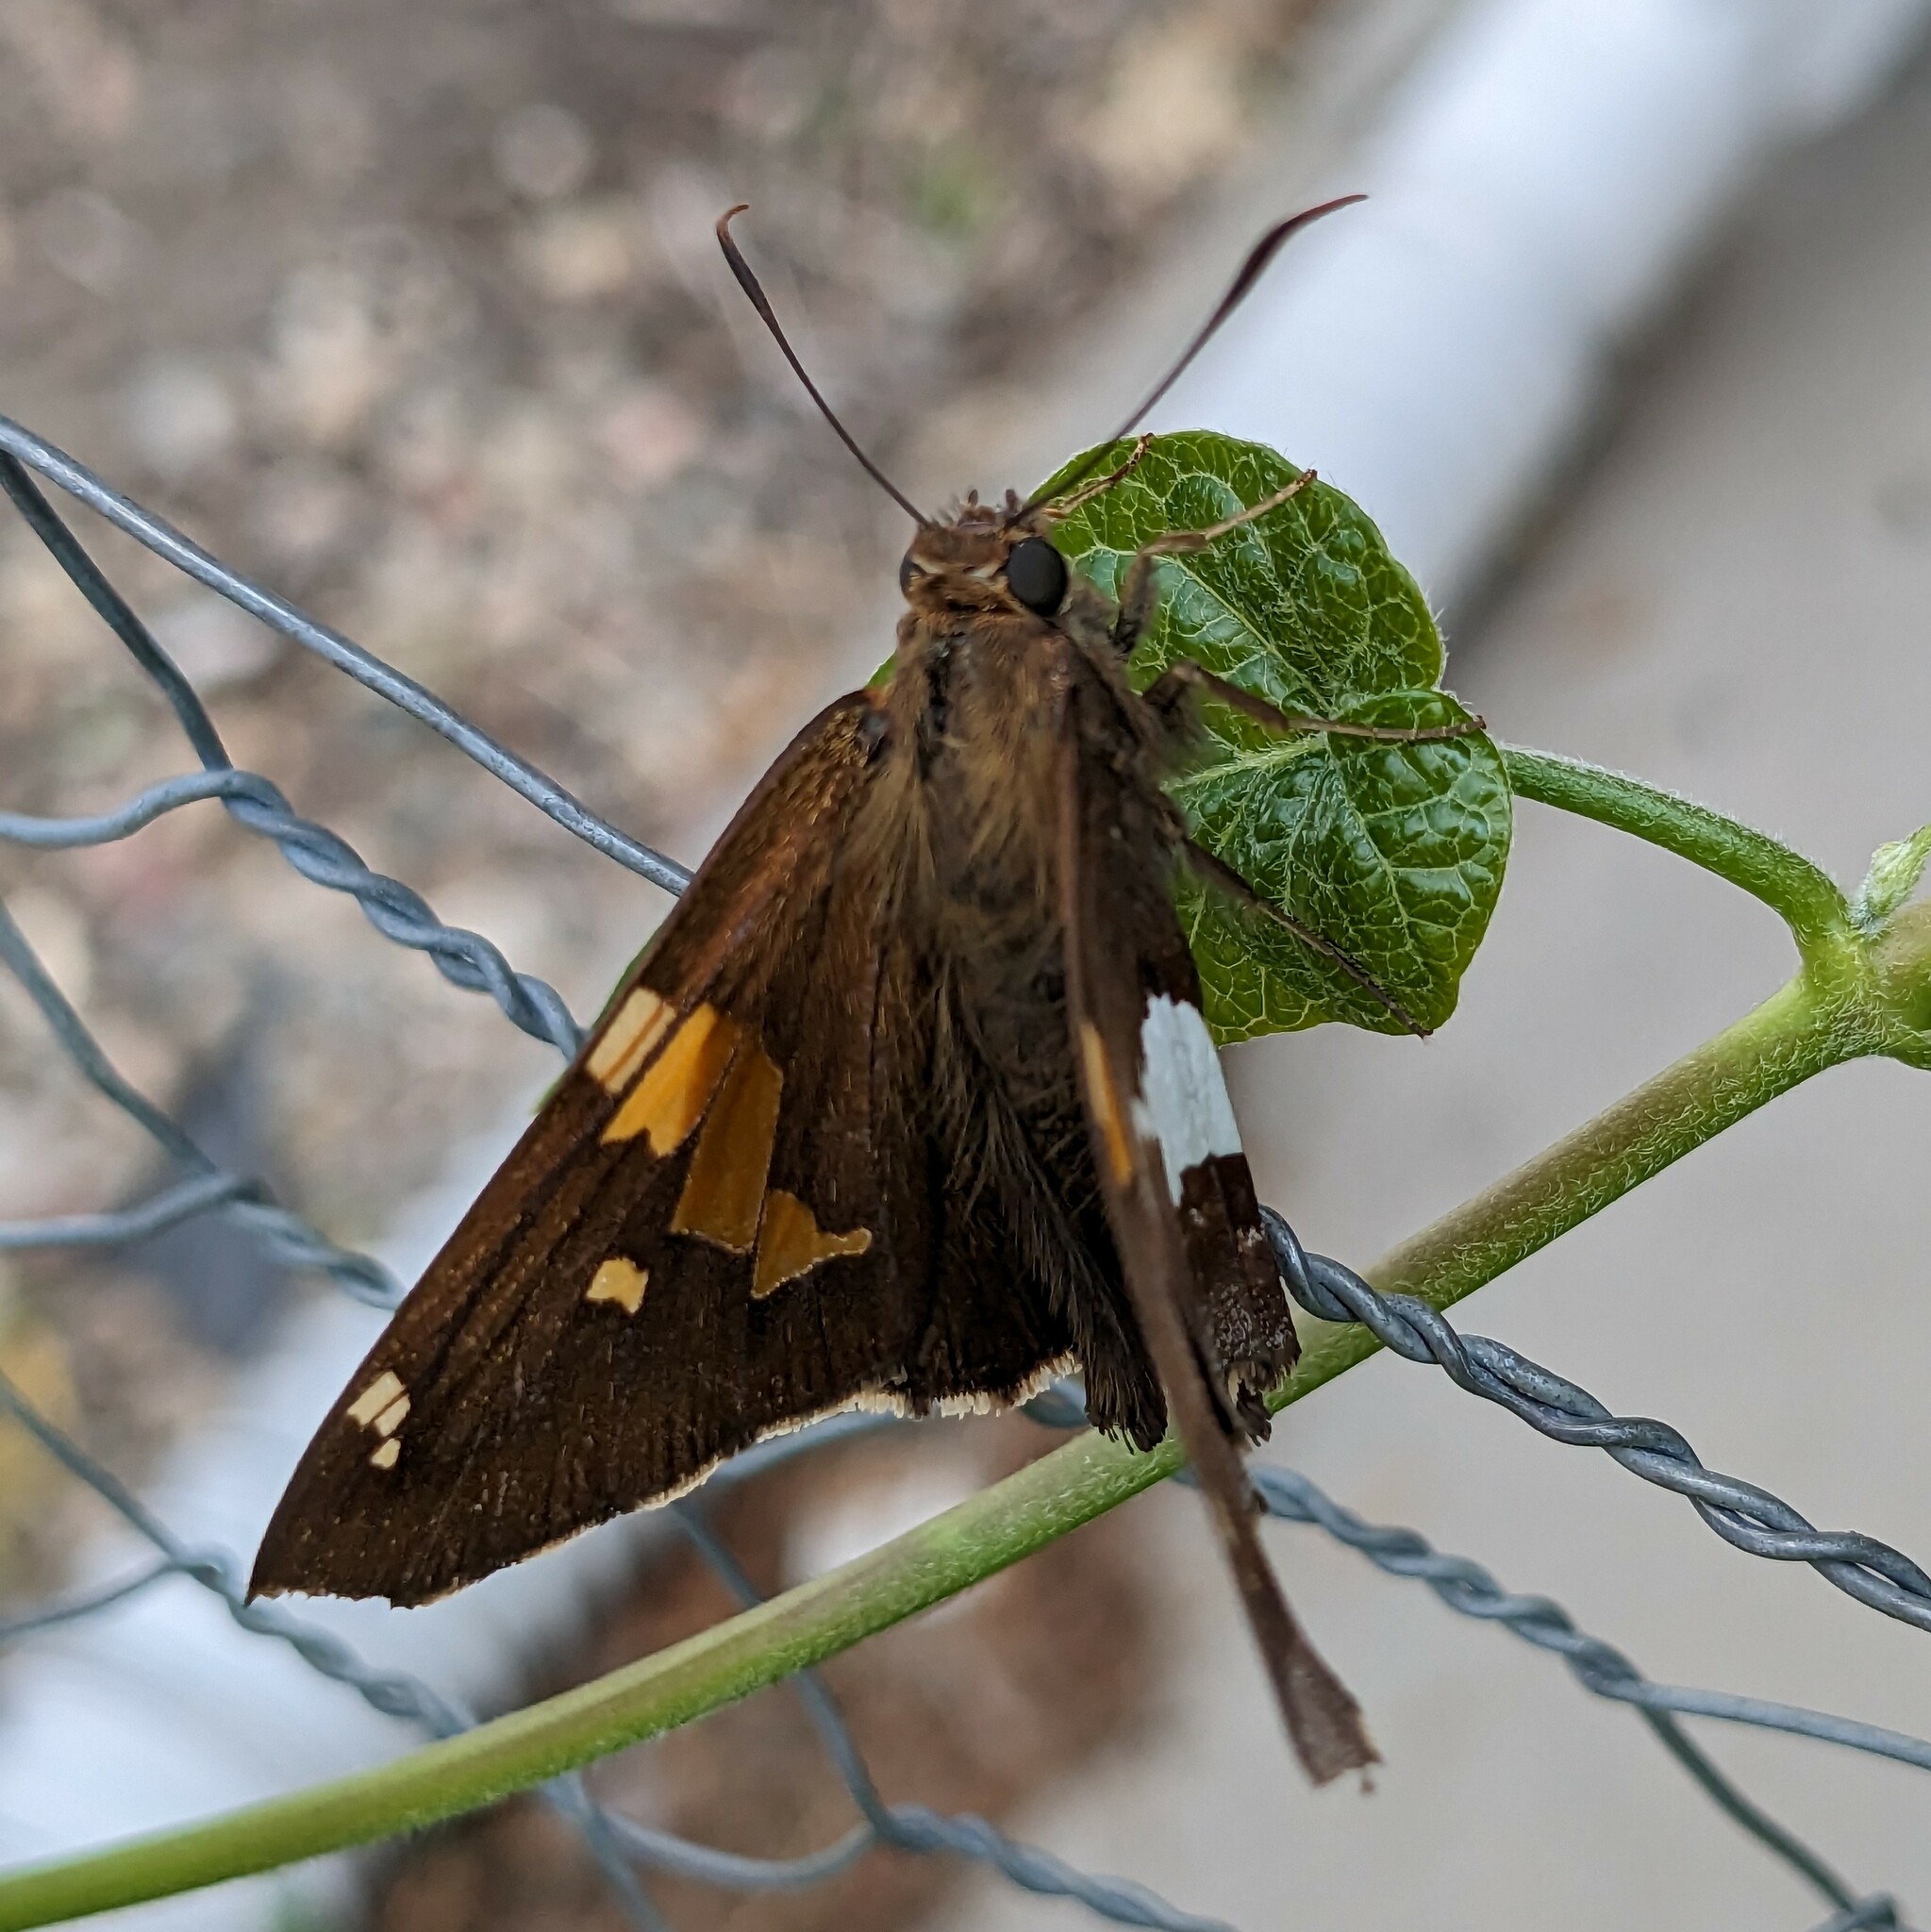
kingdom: Animalia
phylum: Arthropoda
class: Insecta
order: Lepidoptera
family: Hesperiidae
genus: Epargyreus
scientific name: Epargyreus clarus
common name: Silver-spotted skipper
